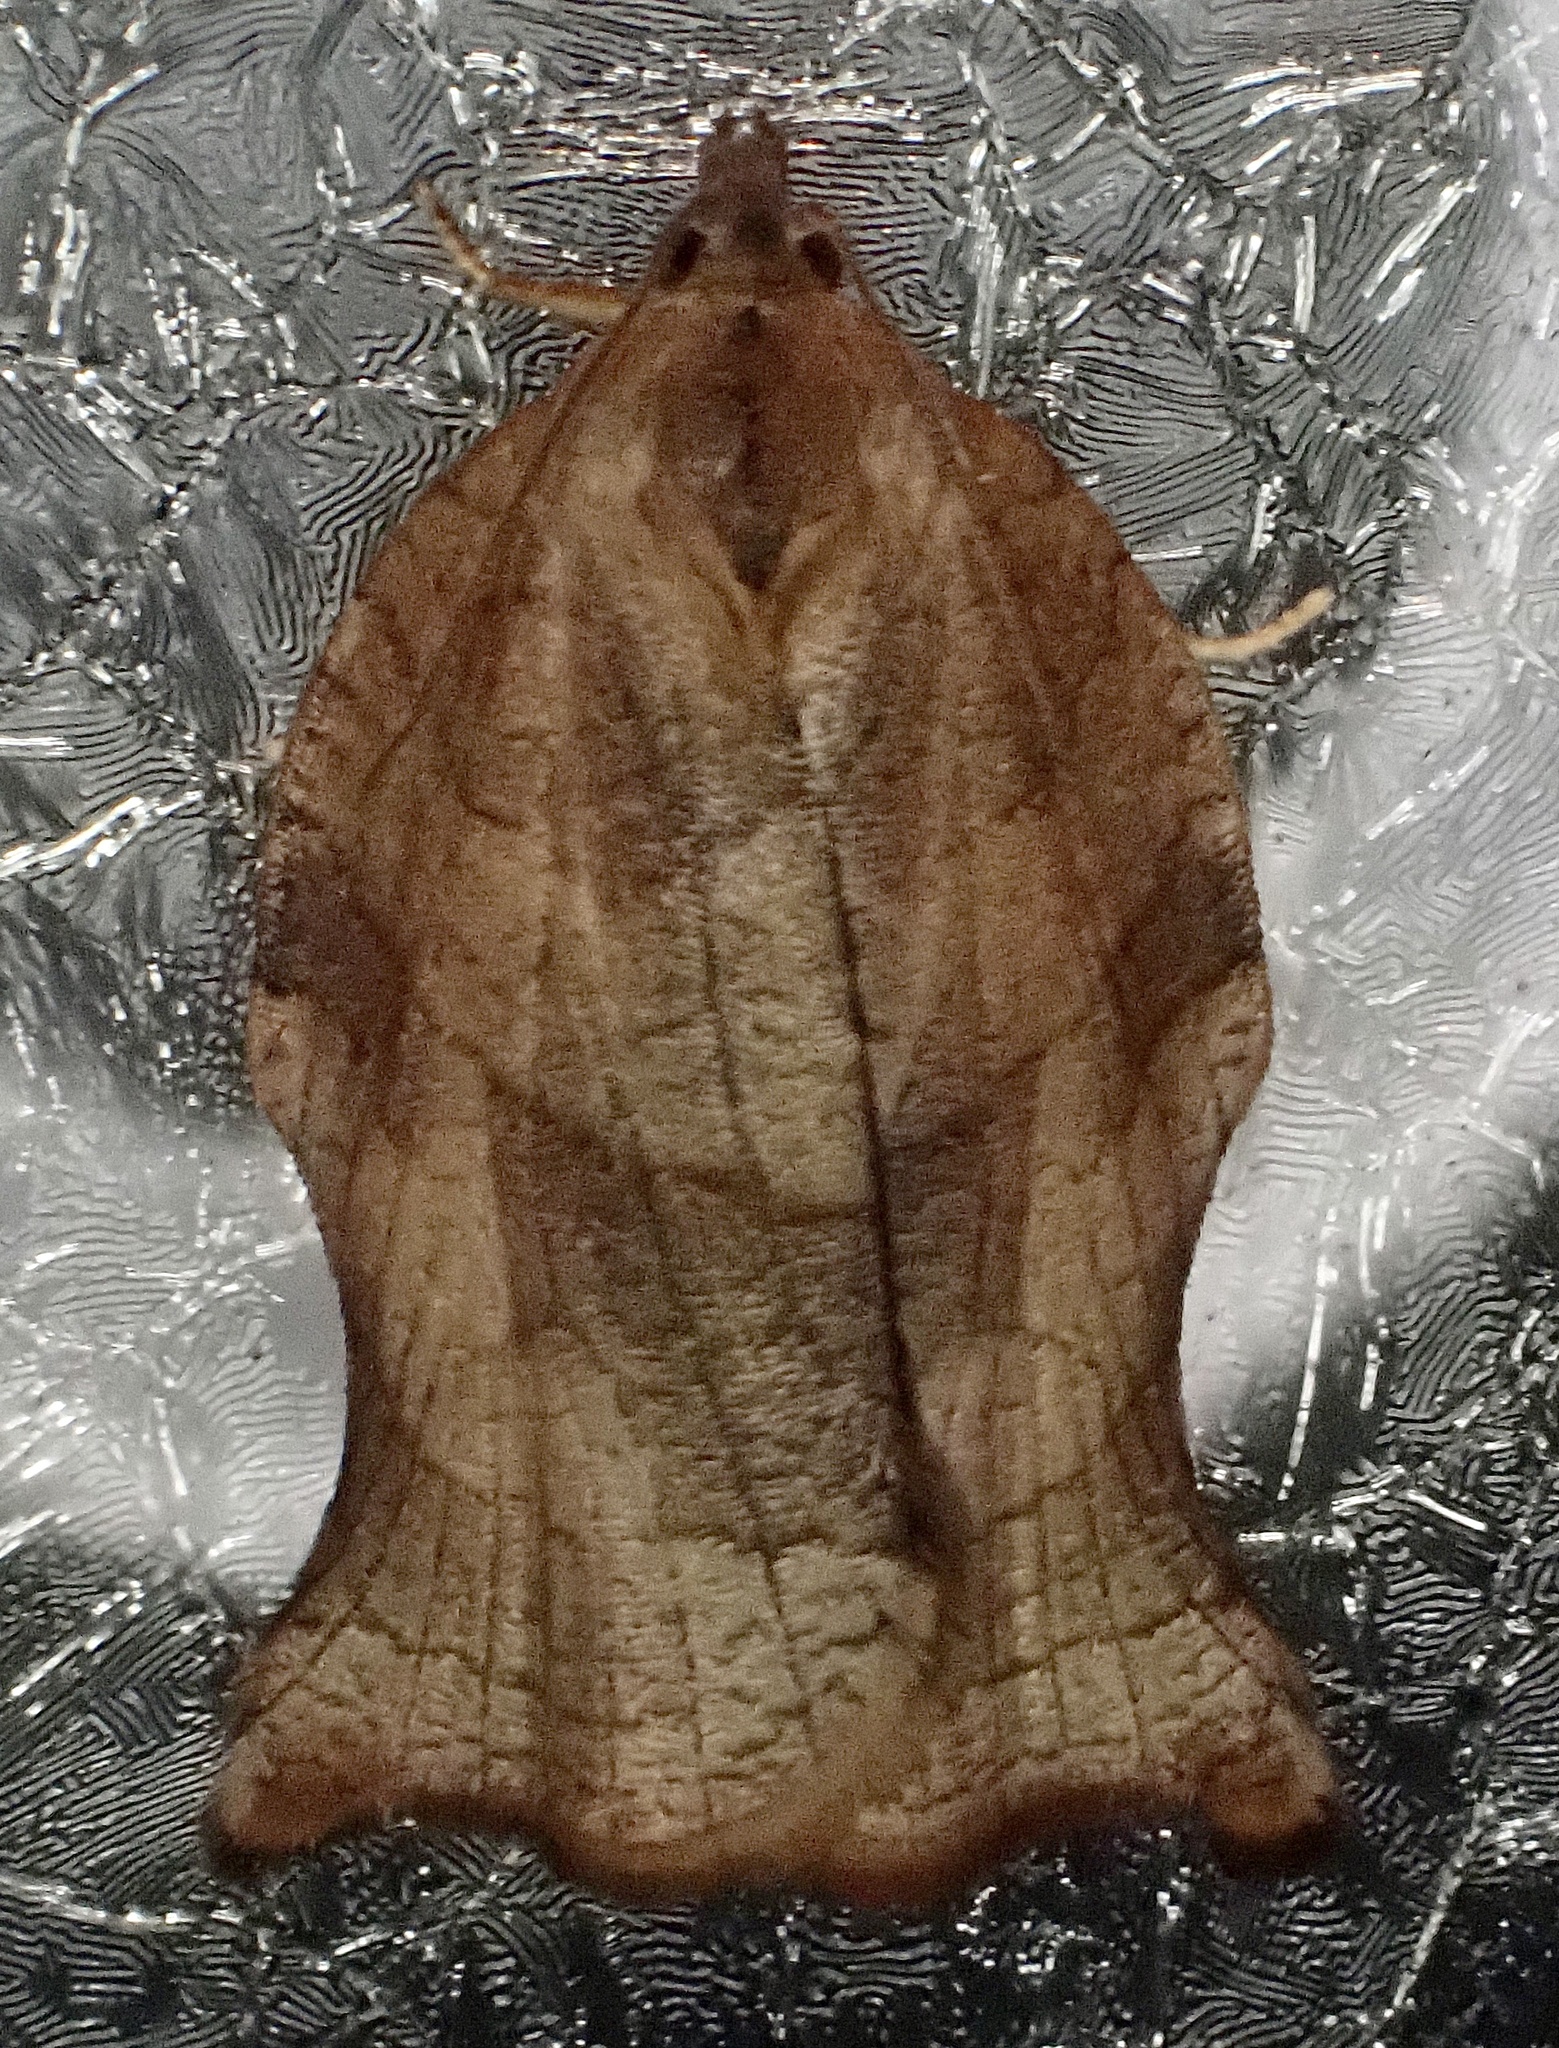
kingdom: Animalia
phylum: Arthropoda
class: Insecta
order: Lepidoptera
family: Tortricidae
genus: Choristoneura
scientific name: Choristoneura rosaceana
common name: Oblique-banded leafroller moth
